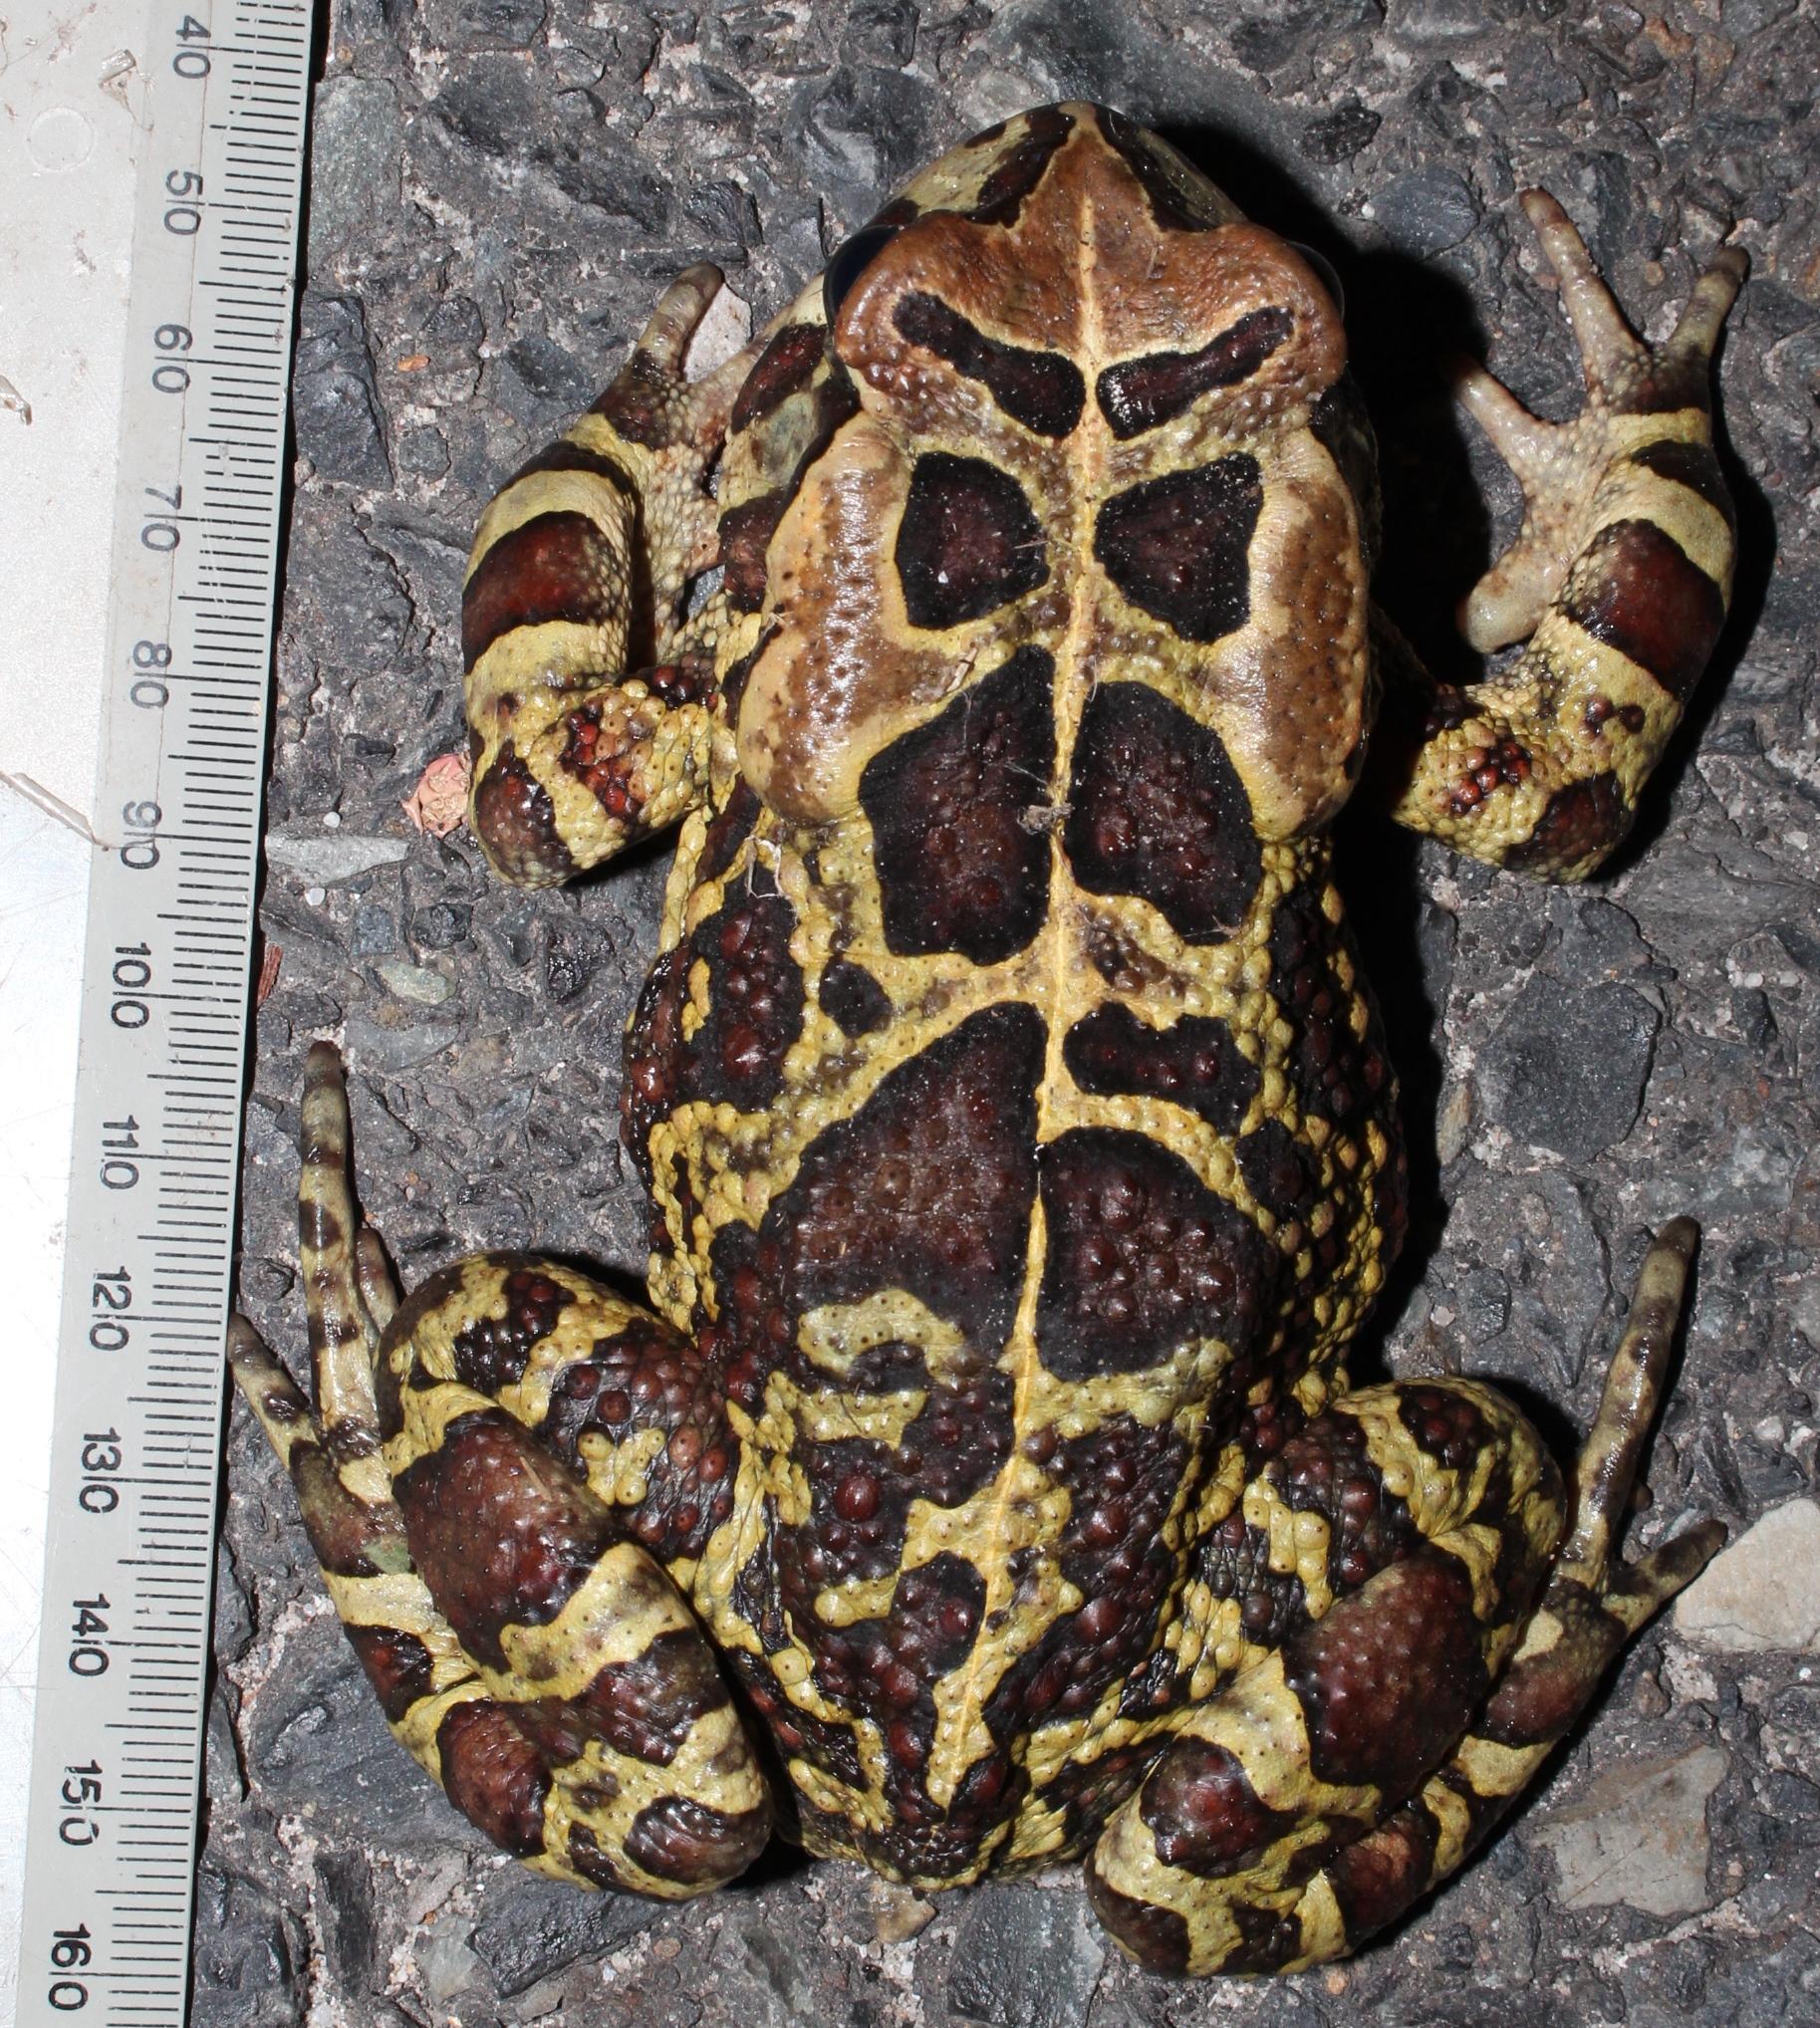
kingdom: Animalia
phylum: Chordata
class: Amphibia
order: Anura
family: Bufonidae
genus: Sclerophrys
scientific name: Sclerophrys pantherina
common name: Panther toad
